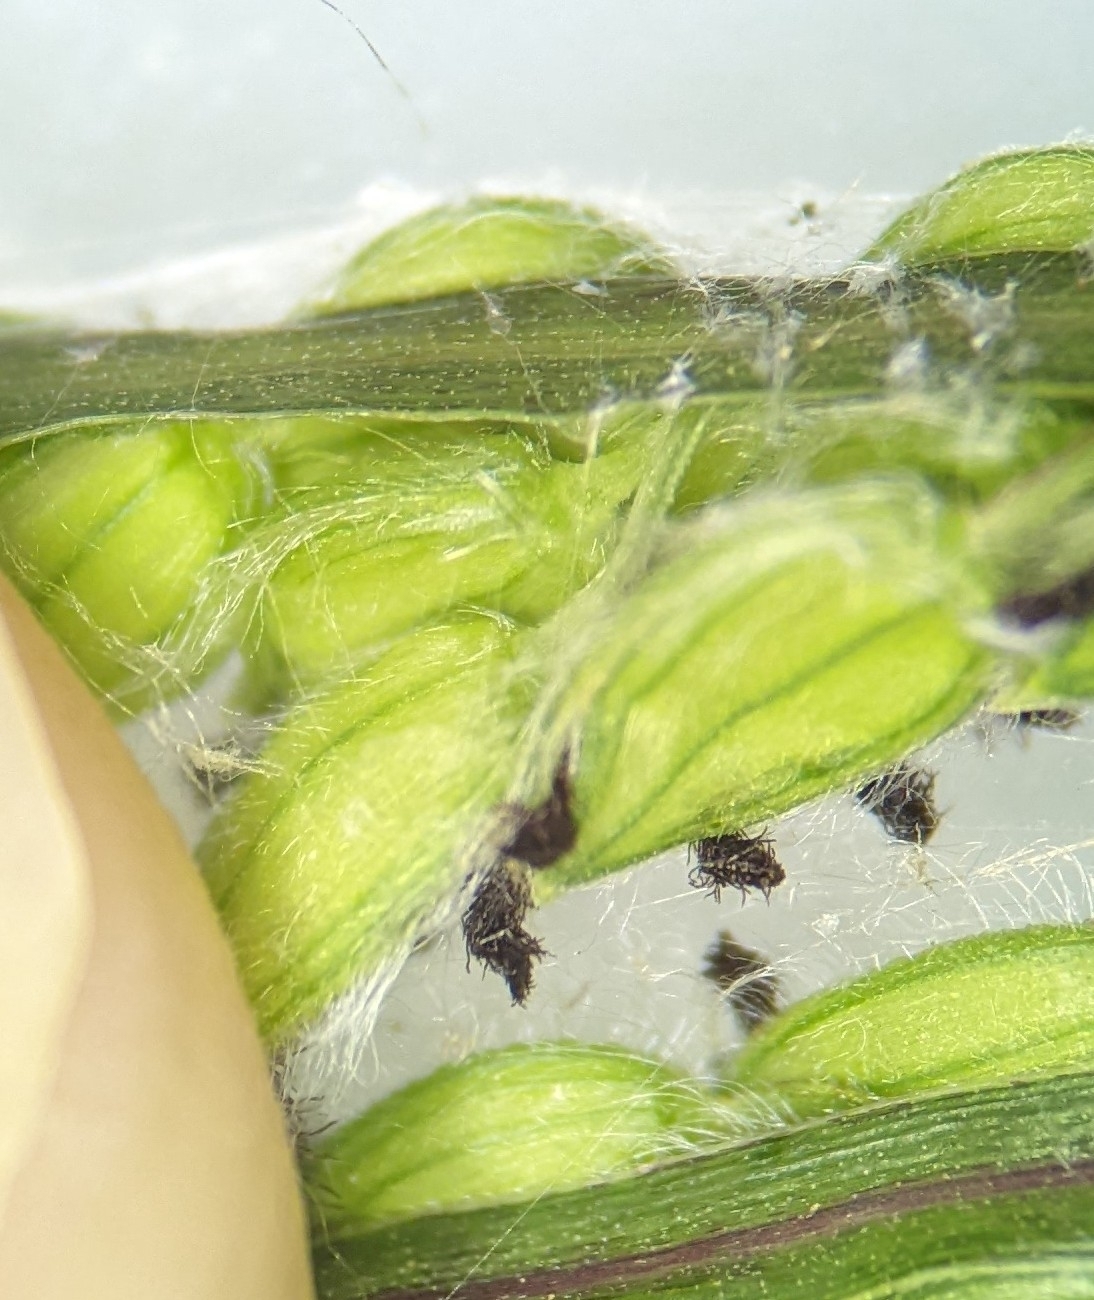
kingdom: Plantae
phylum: Tracheophyta
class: Liliopsida
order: Poales
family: Poaceae
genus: Paspalum
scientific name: Paspalum dilatatum
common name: Dallisgrass
